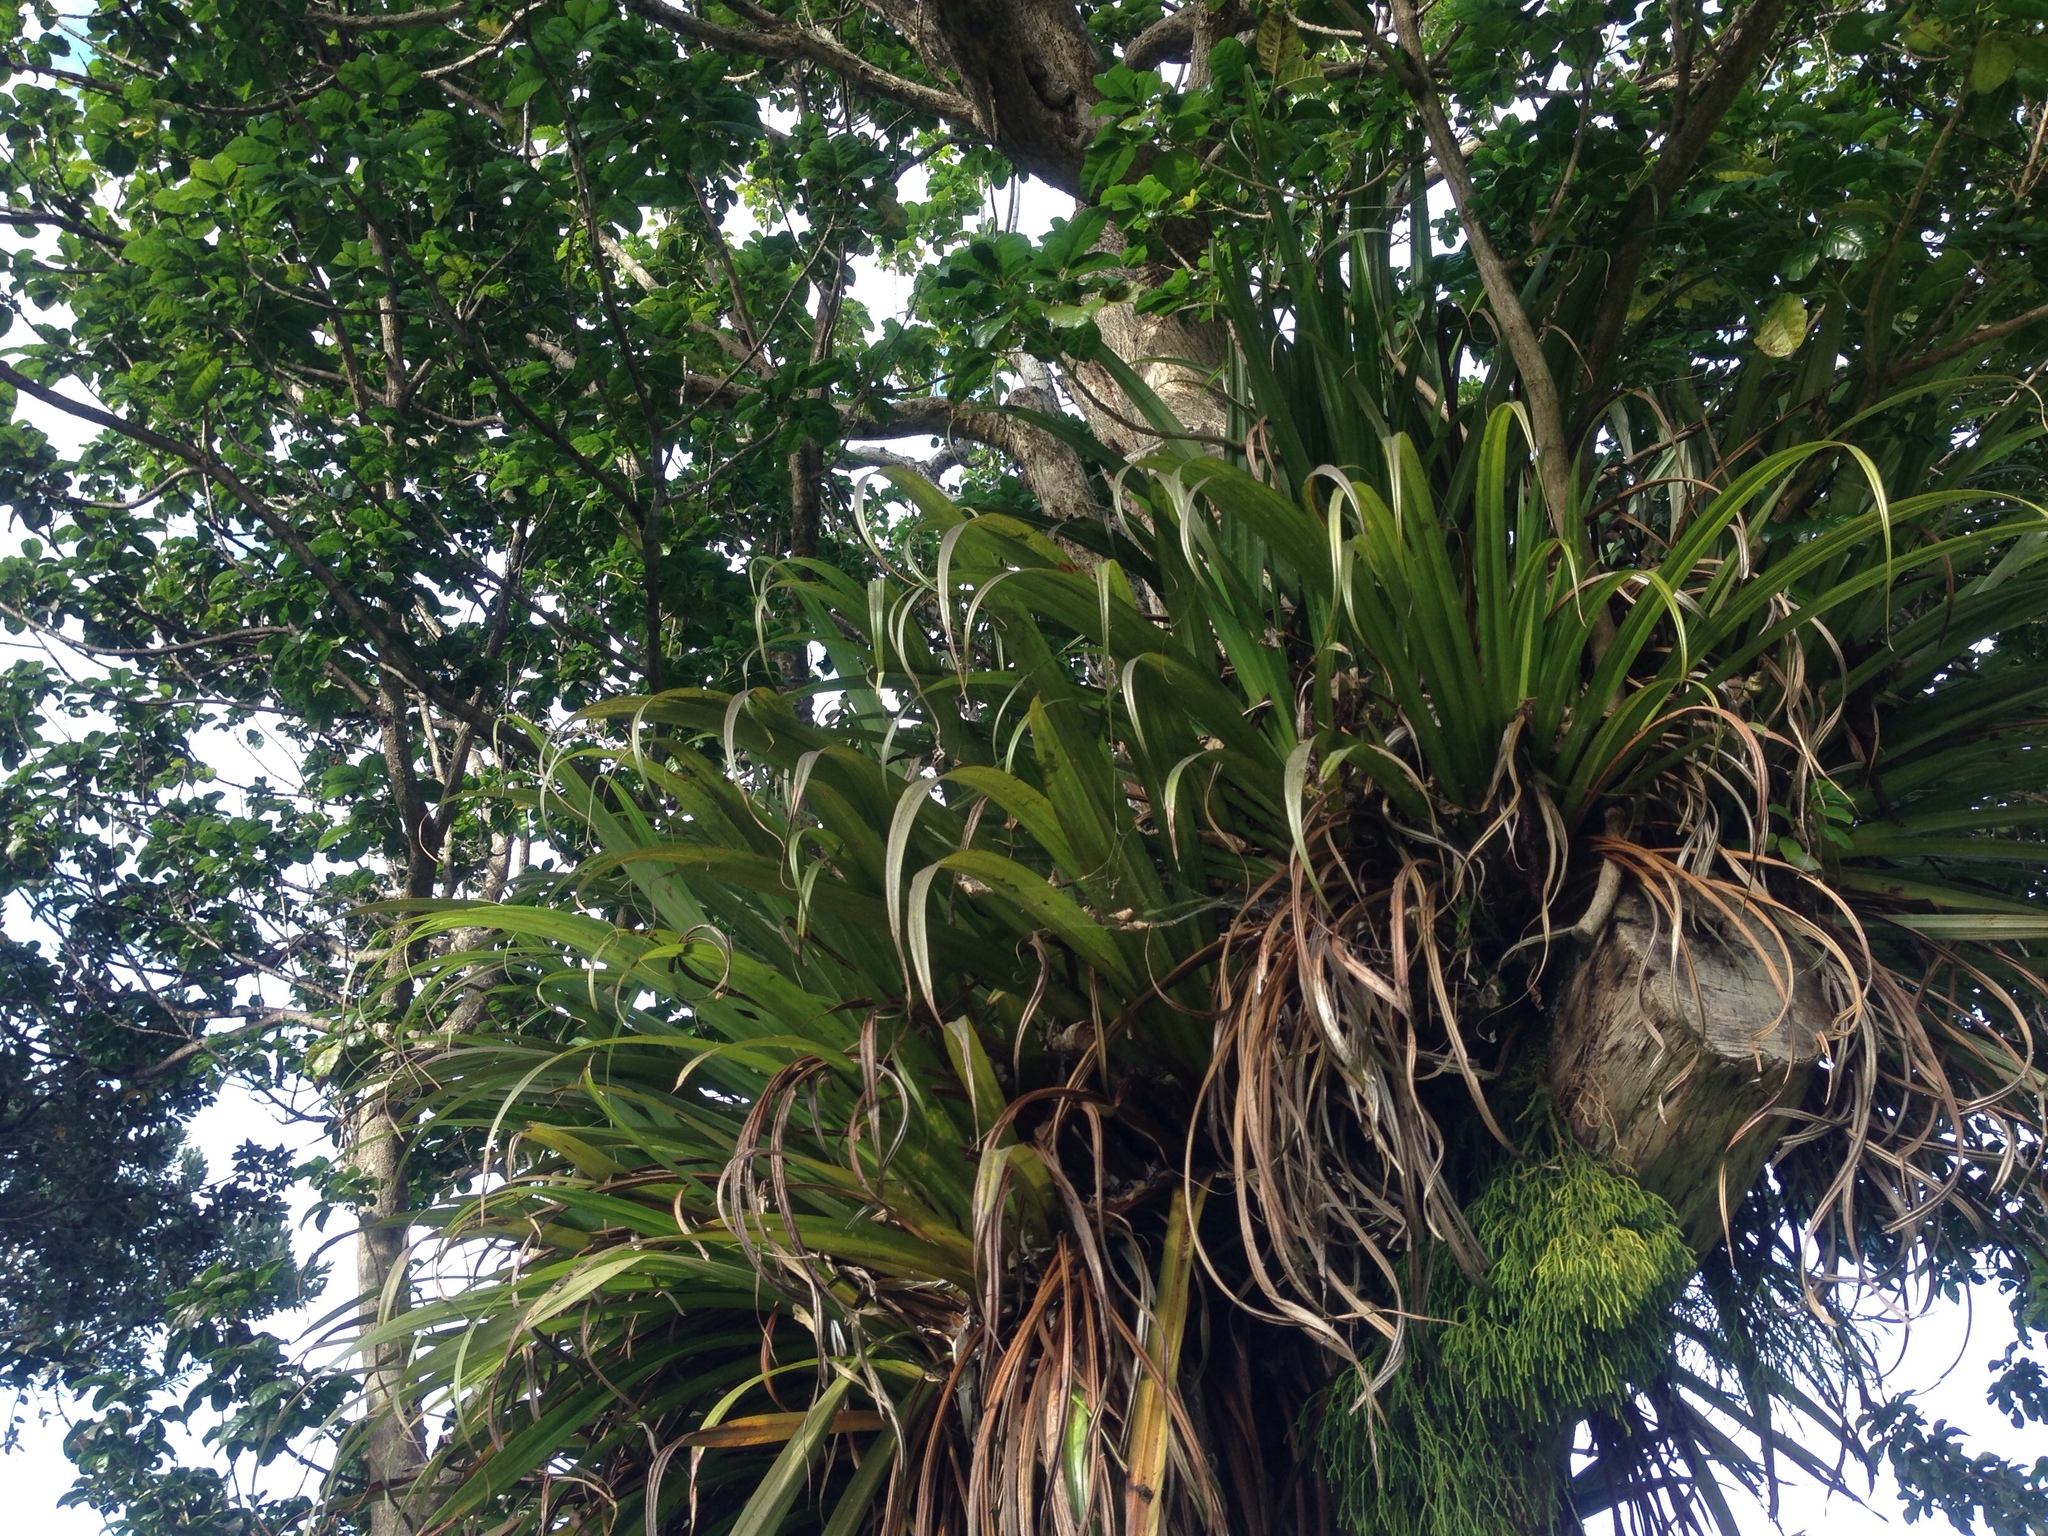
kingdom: Plantae
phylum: Tracheophyta
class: Liliopsida
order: Asparagales
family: Asteliaceae
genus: Astelia
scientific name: Astelia hastata
